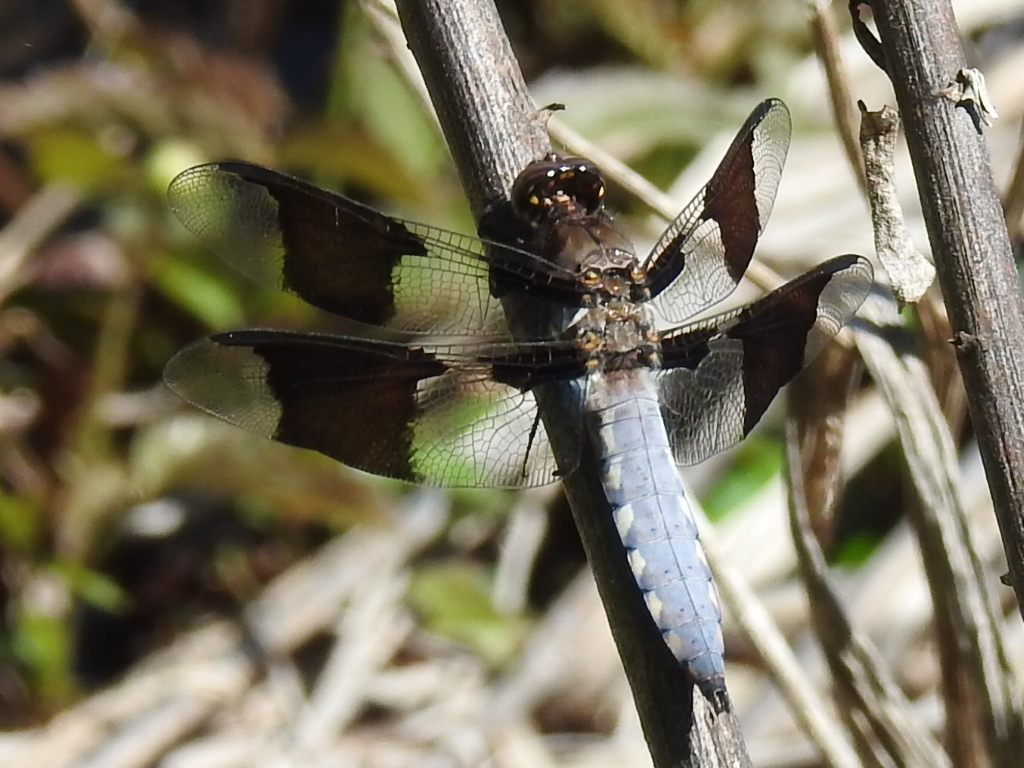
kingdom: Animalia
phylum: Arthropoda
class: Insecta
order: Odonata
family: Libellulidae
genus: Plathemis
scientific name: Plathemis lydia
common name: Common whitetail
